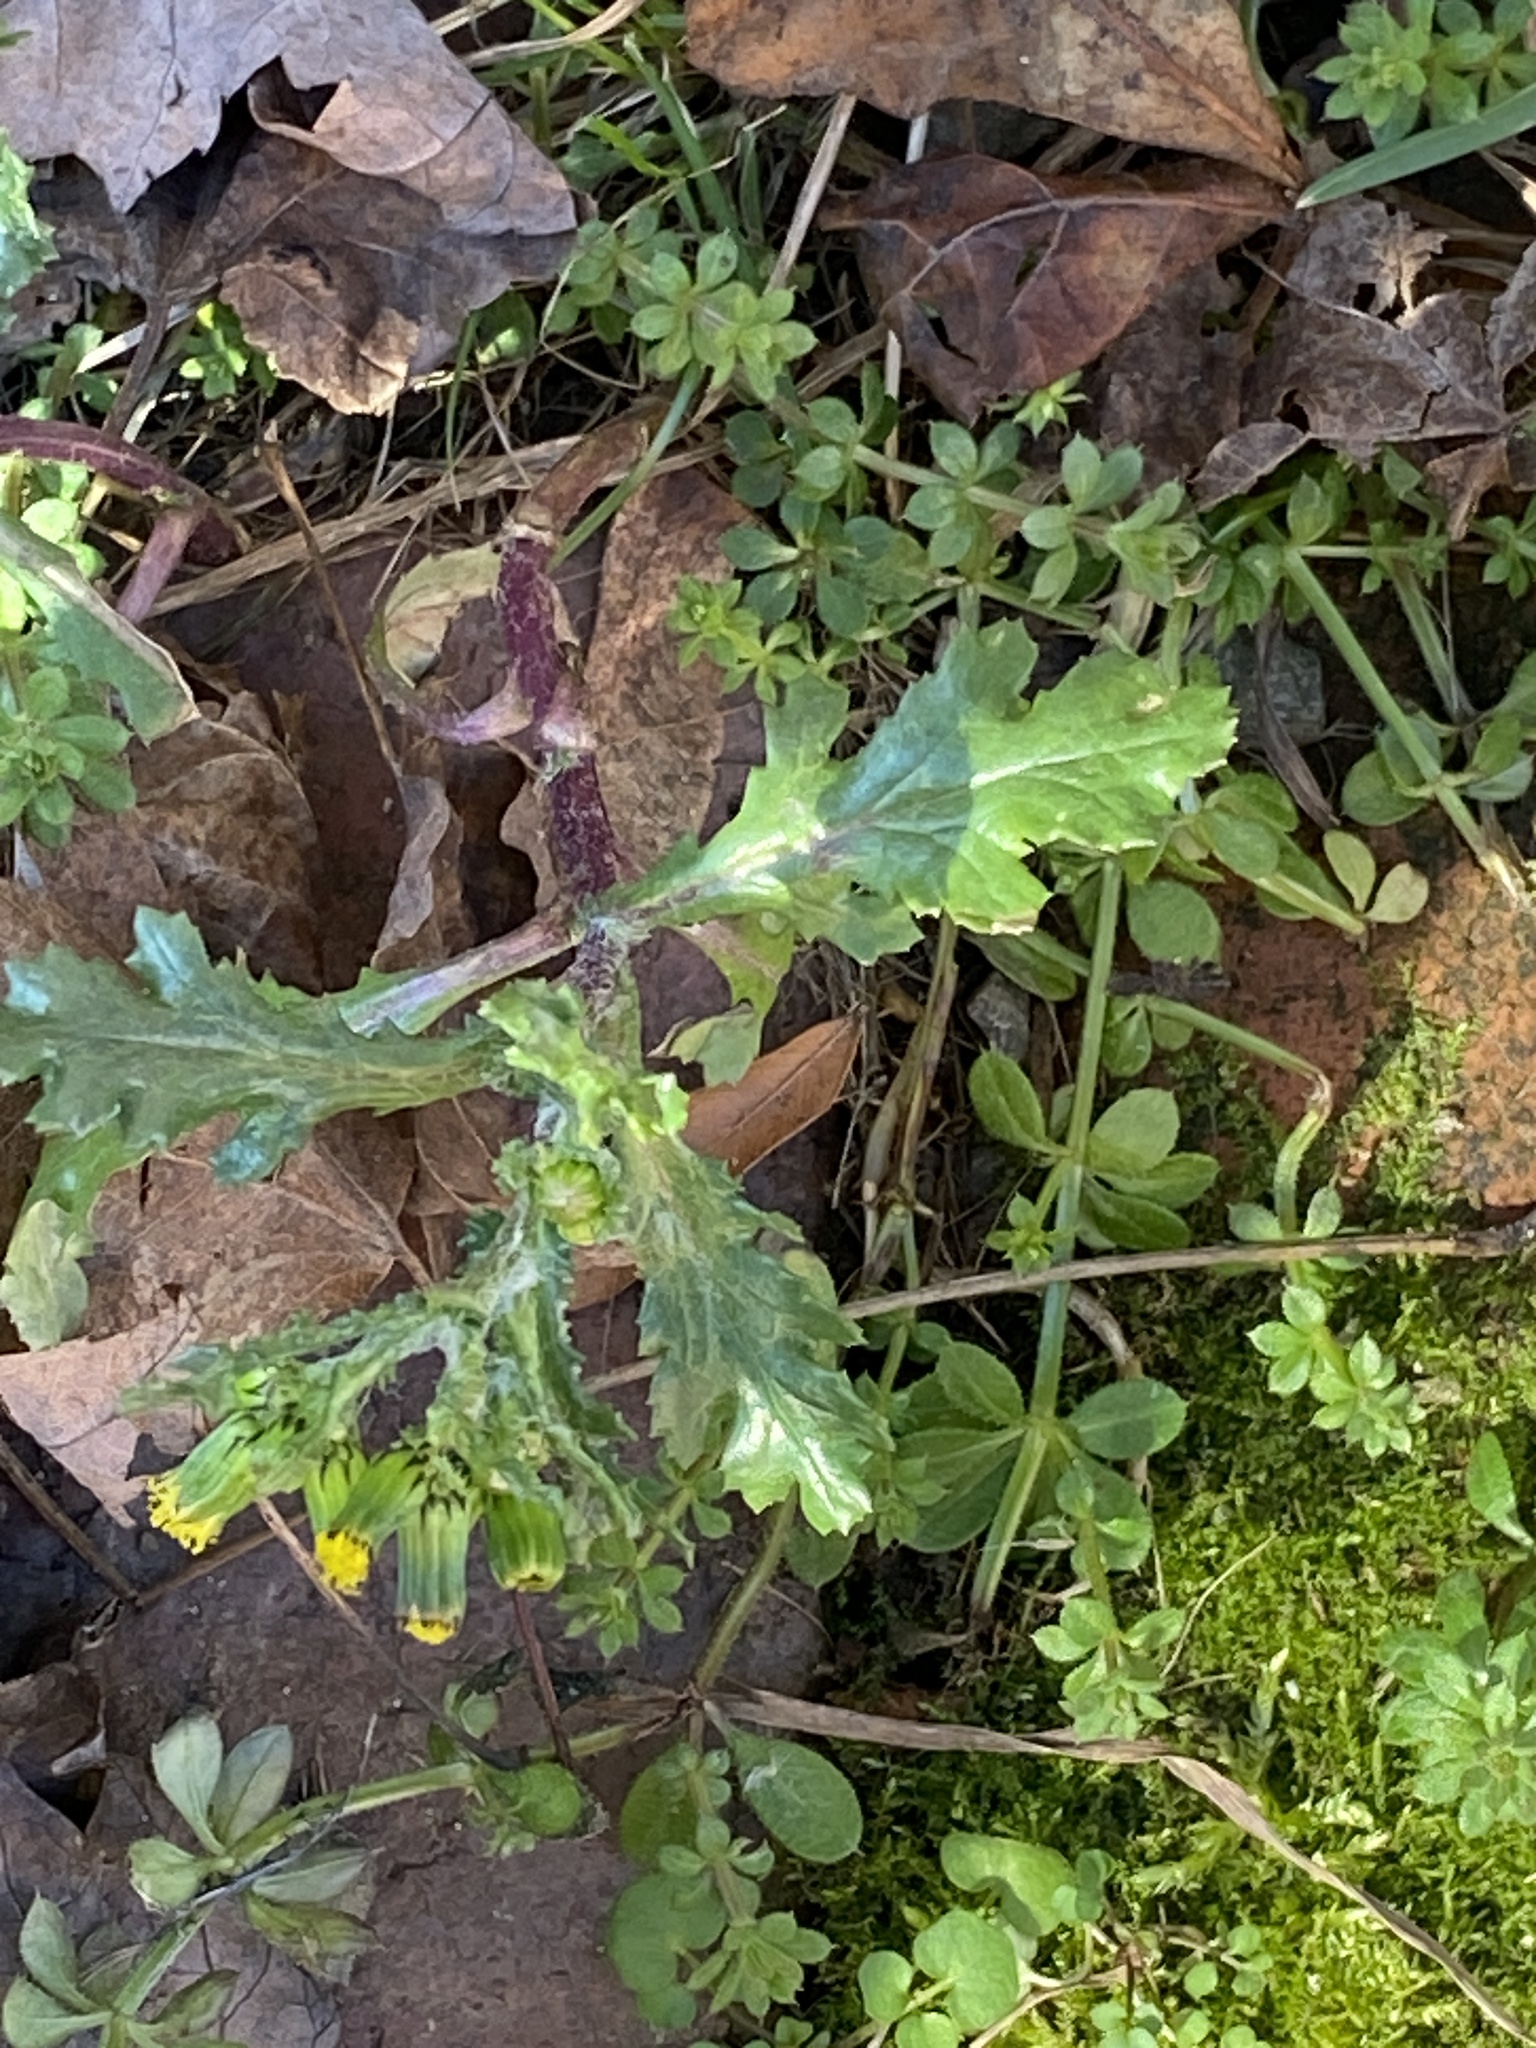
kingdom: Plantae
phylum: Tracheophyta
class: Magnoliopsida
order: Asterales
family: Asteraceae
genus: Senecio
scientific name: Senecio vulgaris
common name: Old-man-in-the-spring
